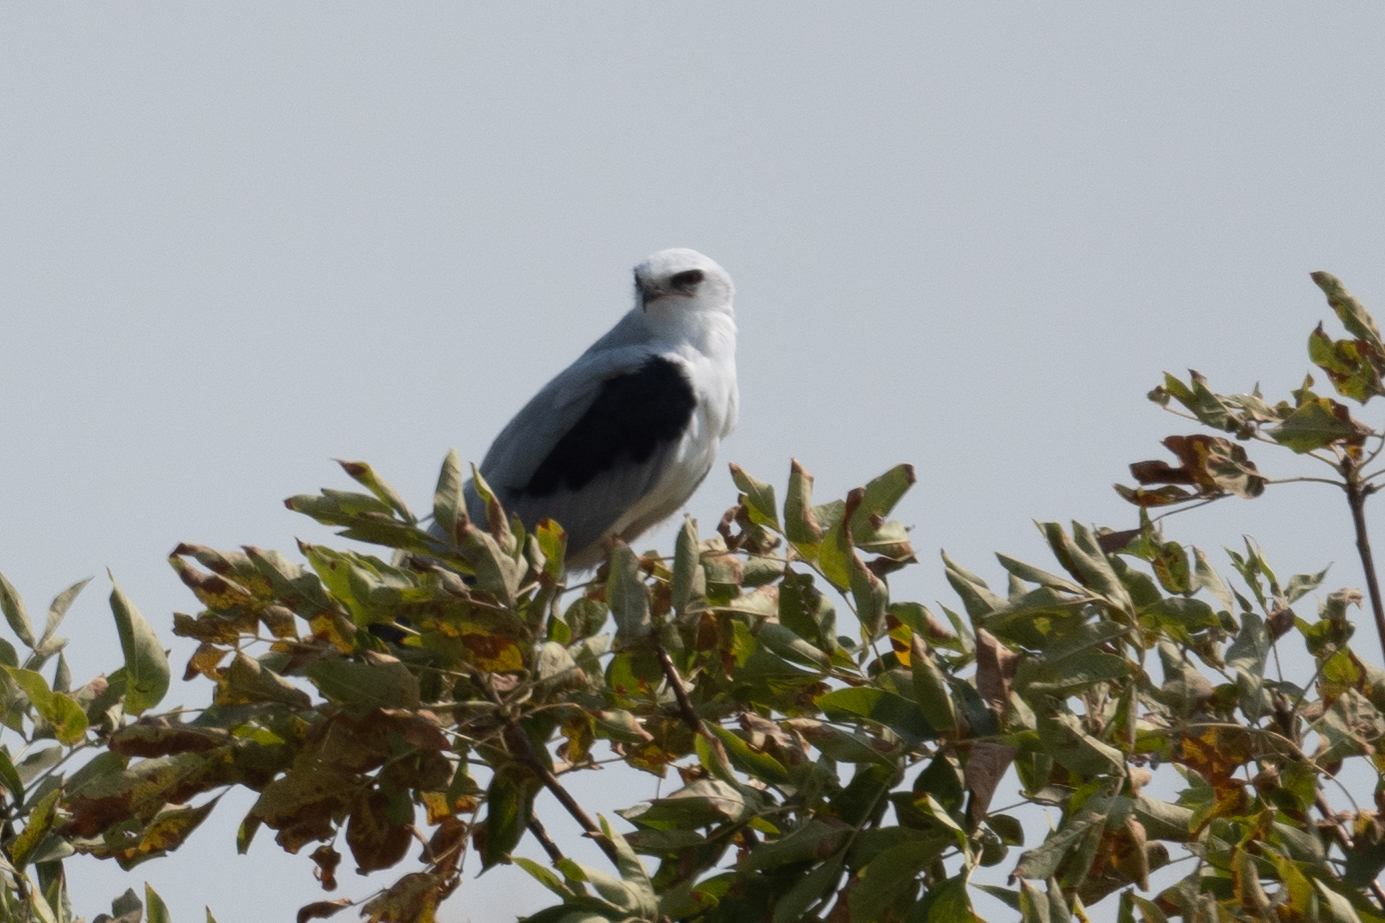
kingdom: Animalia
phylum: Chordata
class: Aves
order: Accipitriformes
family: Accipitridae
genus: Elanus
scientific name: Elanus leucurus
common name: White-tailed kite
